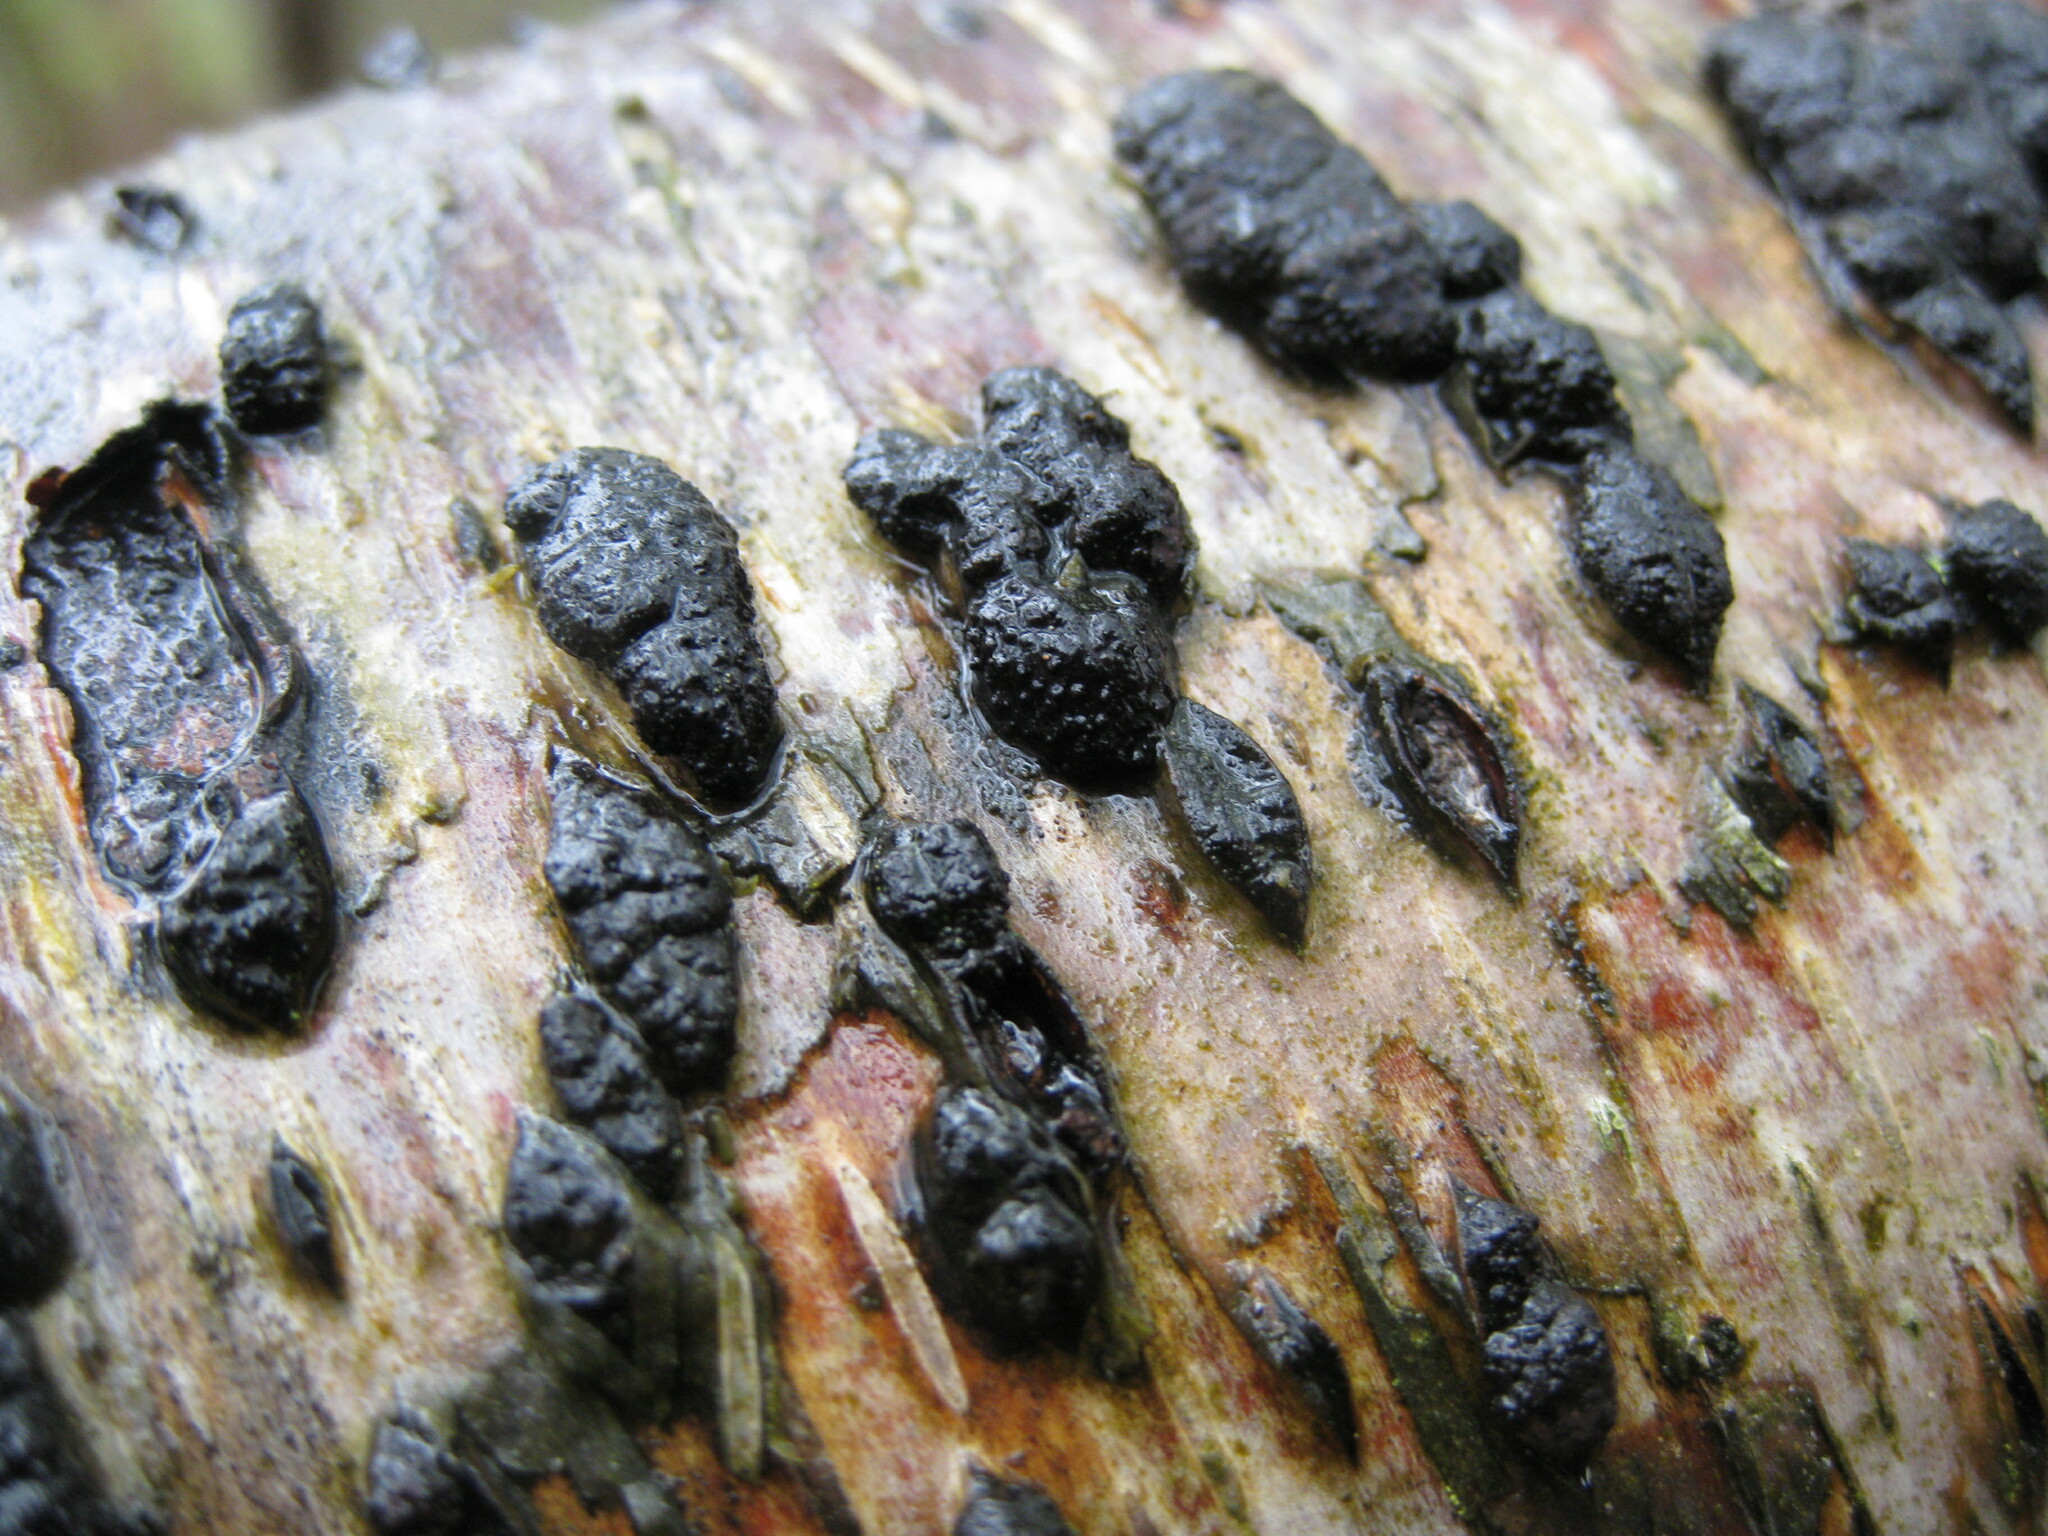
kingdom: Fungi
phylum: Ascomycota
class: Sordariomycetes
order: Xylariales
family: Hypoxylaceae
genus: Jackrogersella
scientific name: Jackrogersella multiformis
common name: Birch woodwart
